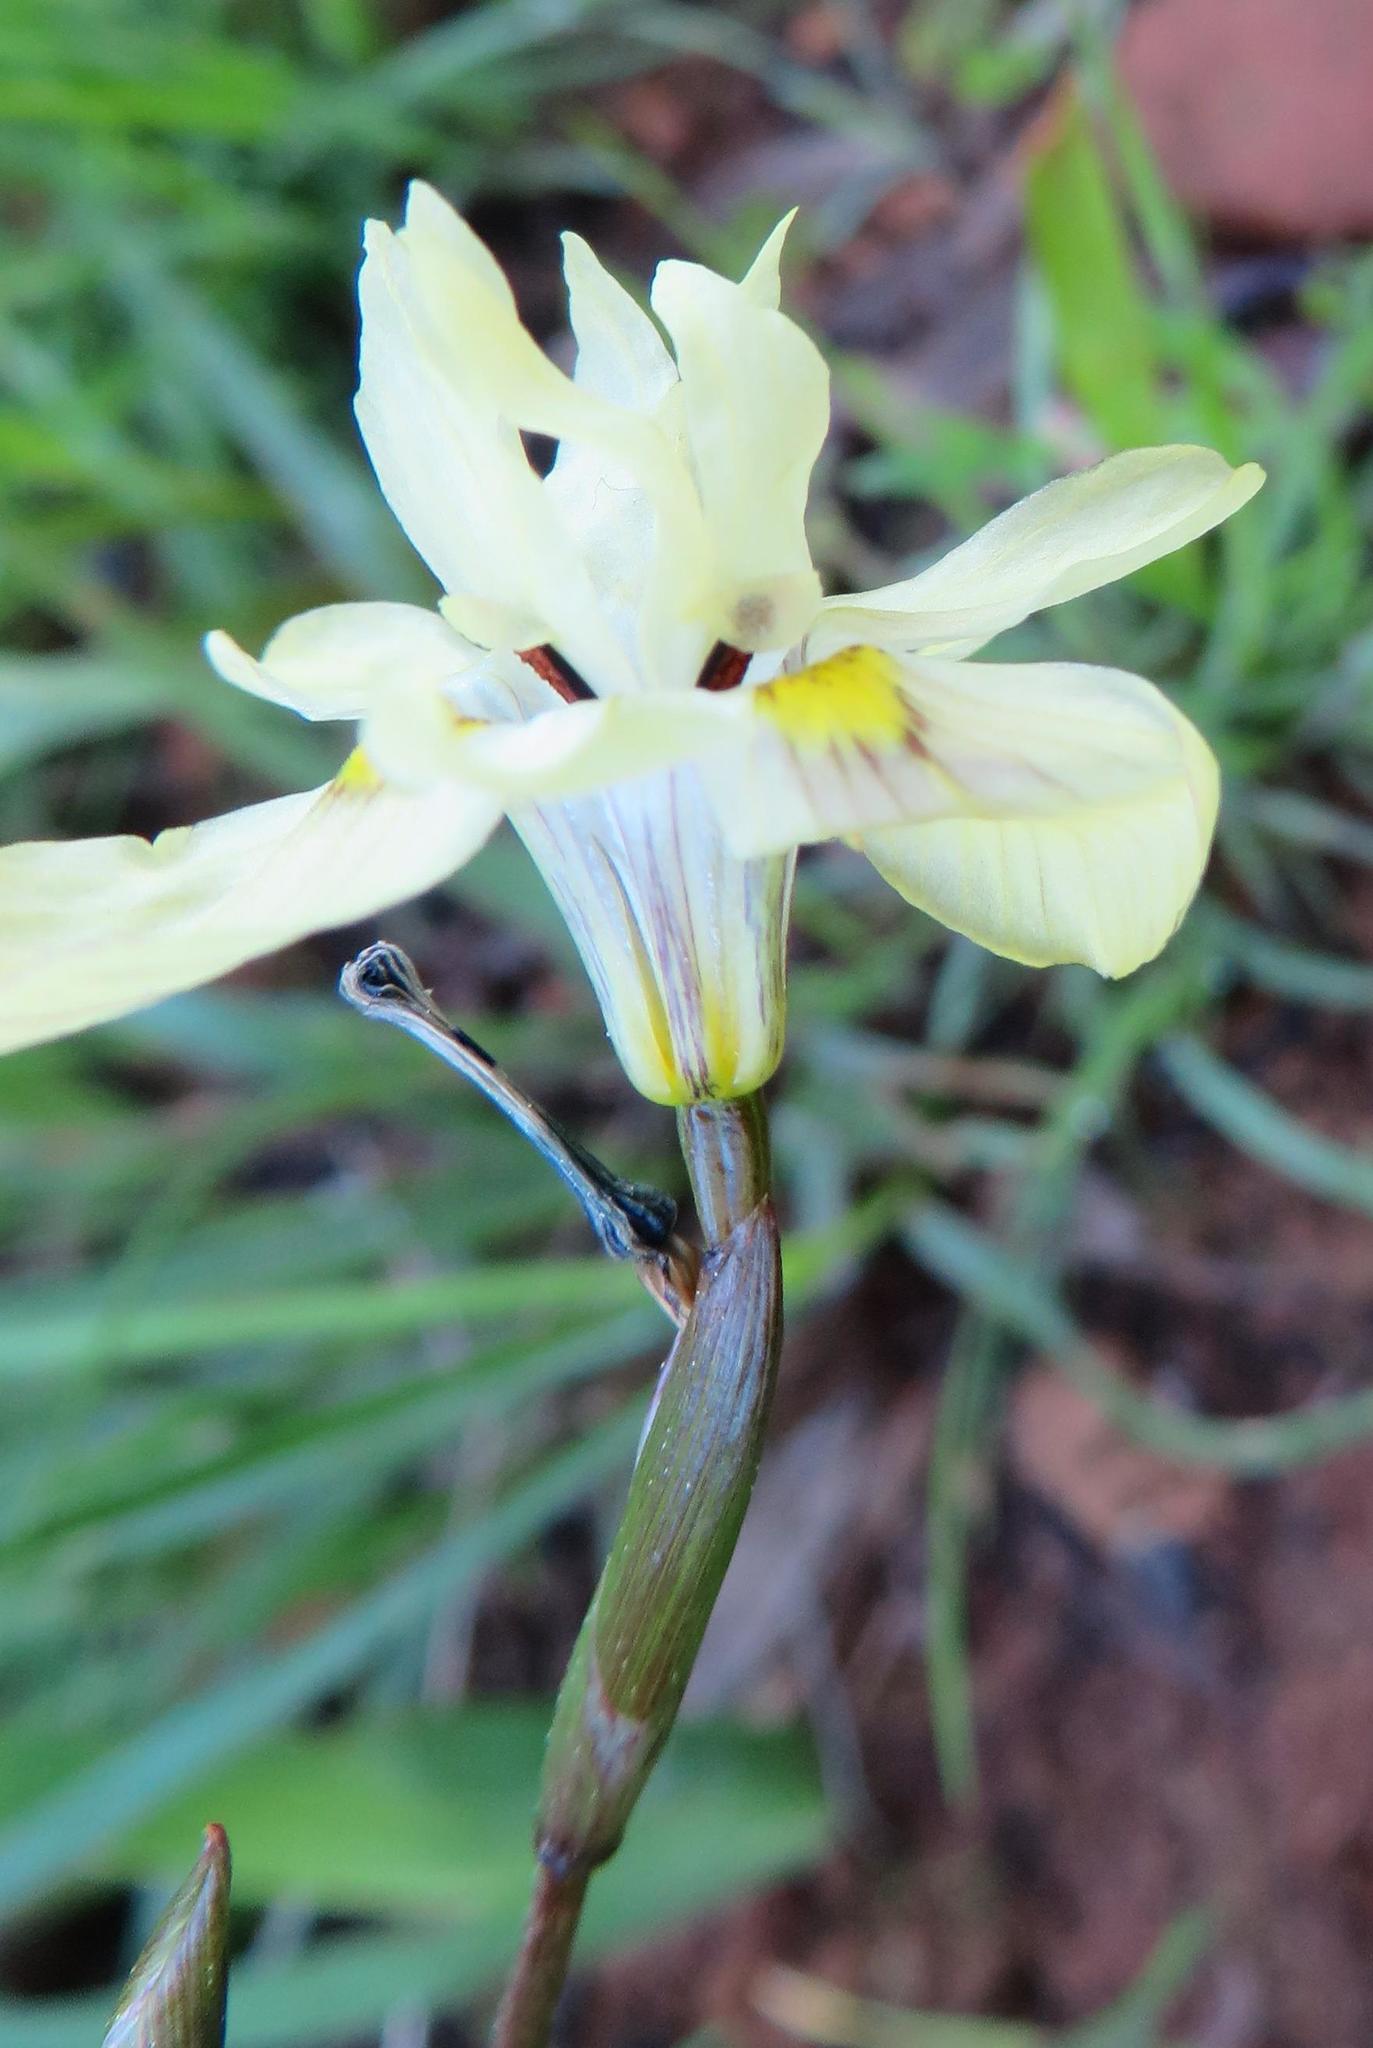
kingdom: Plantae
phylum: Tracheophyta
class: Liliopsida
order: Asparagales
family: Iridaceae
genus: Moraea
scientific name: Moraea gawleri
